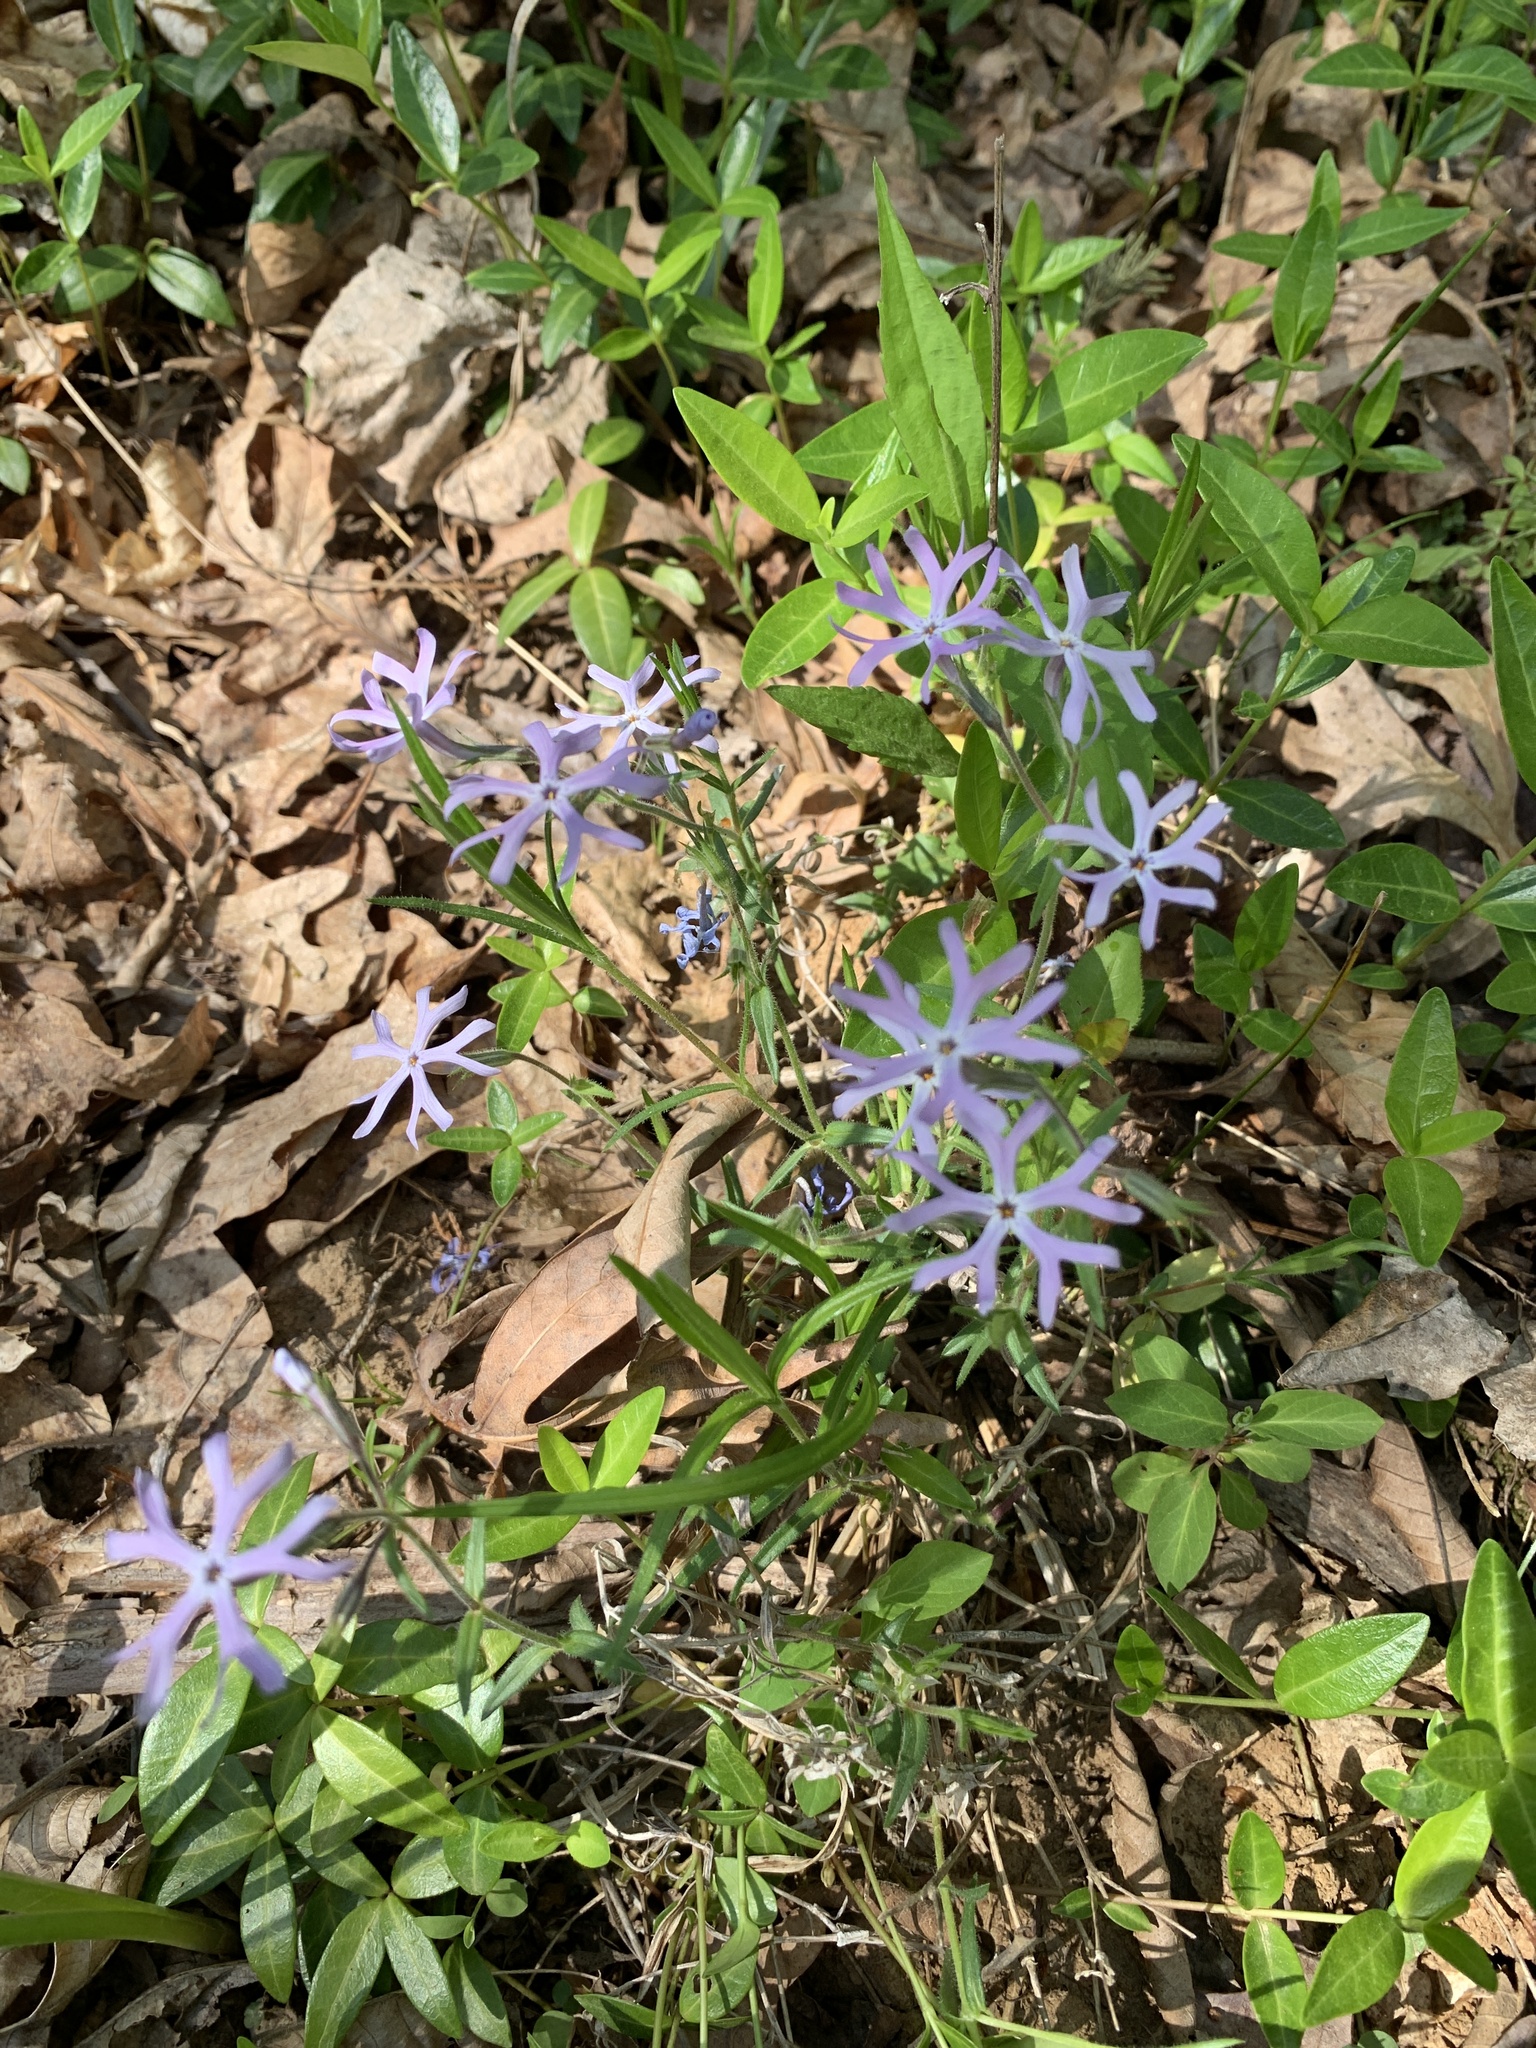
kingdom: Plantae
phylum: Tracheophyta
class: Magnoliopsida
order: Ericales
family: Polemoniaceae
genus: Phlox
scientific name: Phlox bifida
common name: Sand phlox
